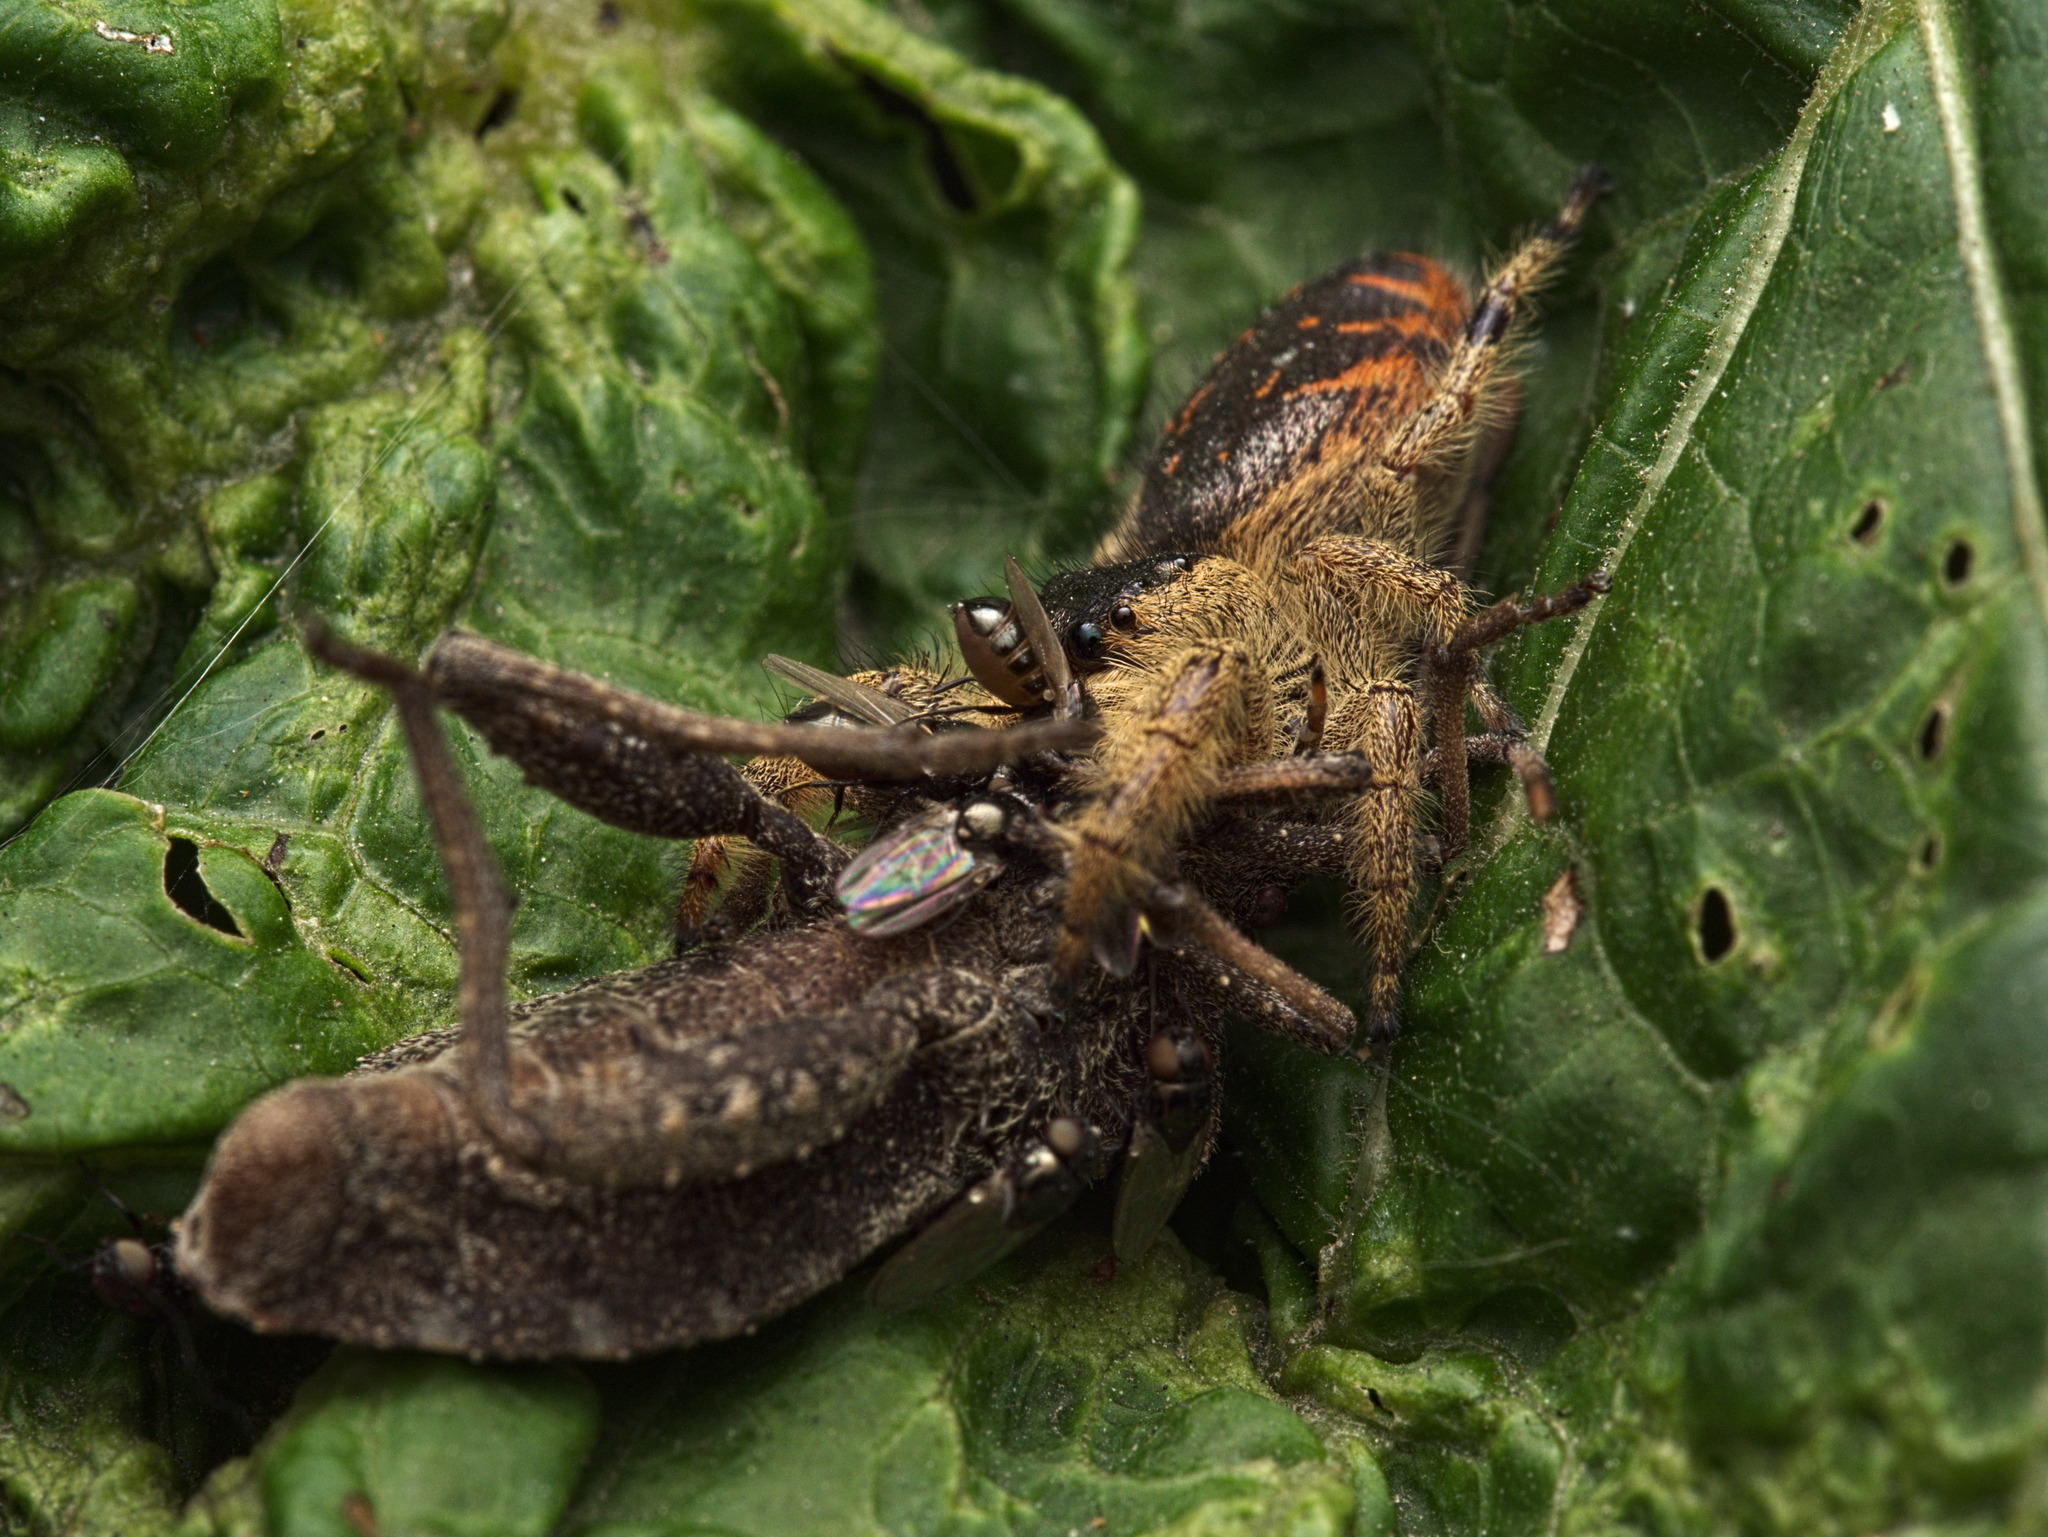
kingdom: Animalia
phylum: Arthropoda
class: Arachnida
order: Araneae
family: Salticidae
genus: Paraphidippus
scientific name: Paraphidippus
